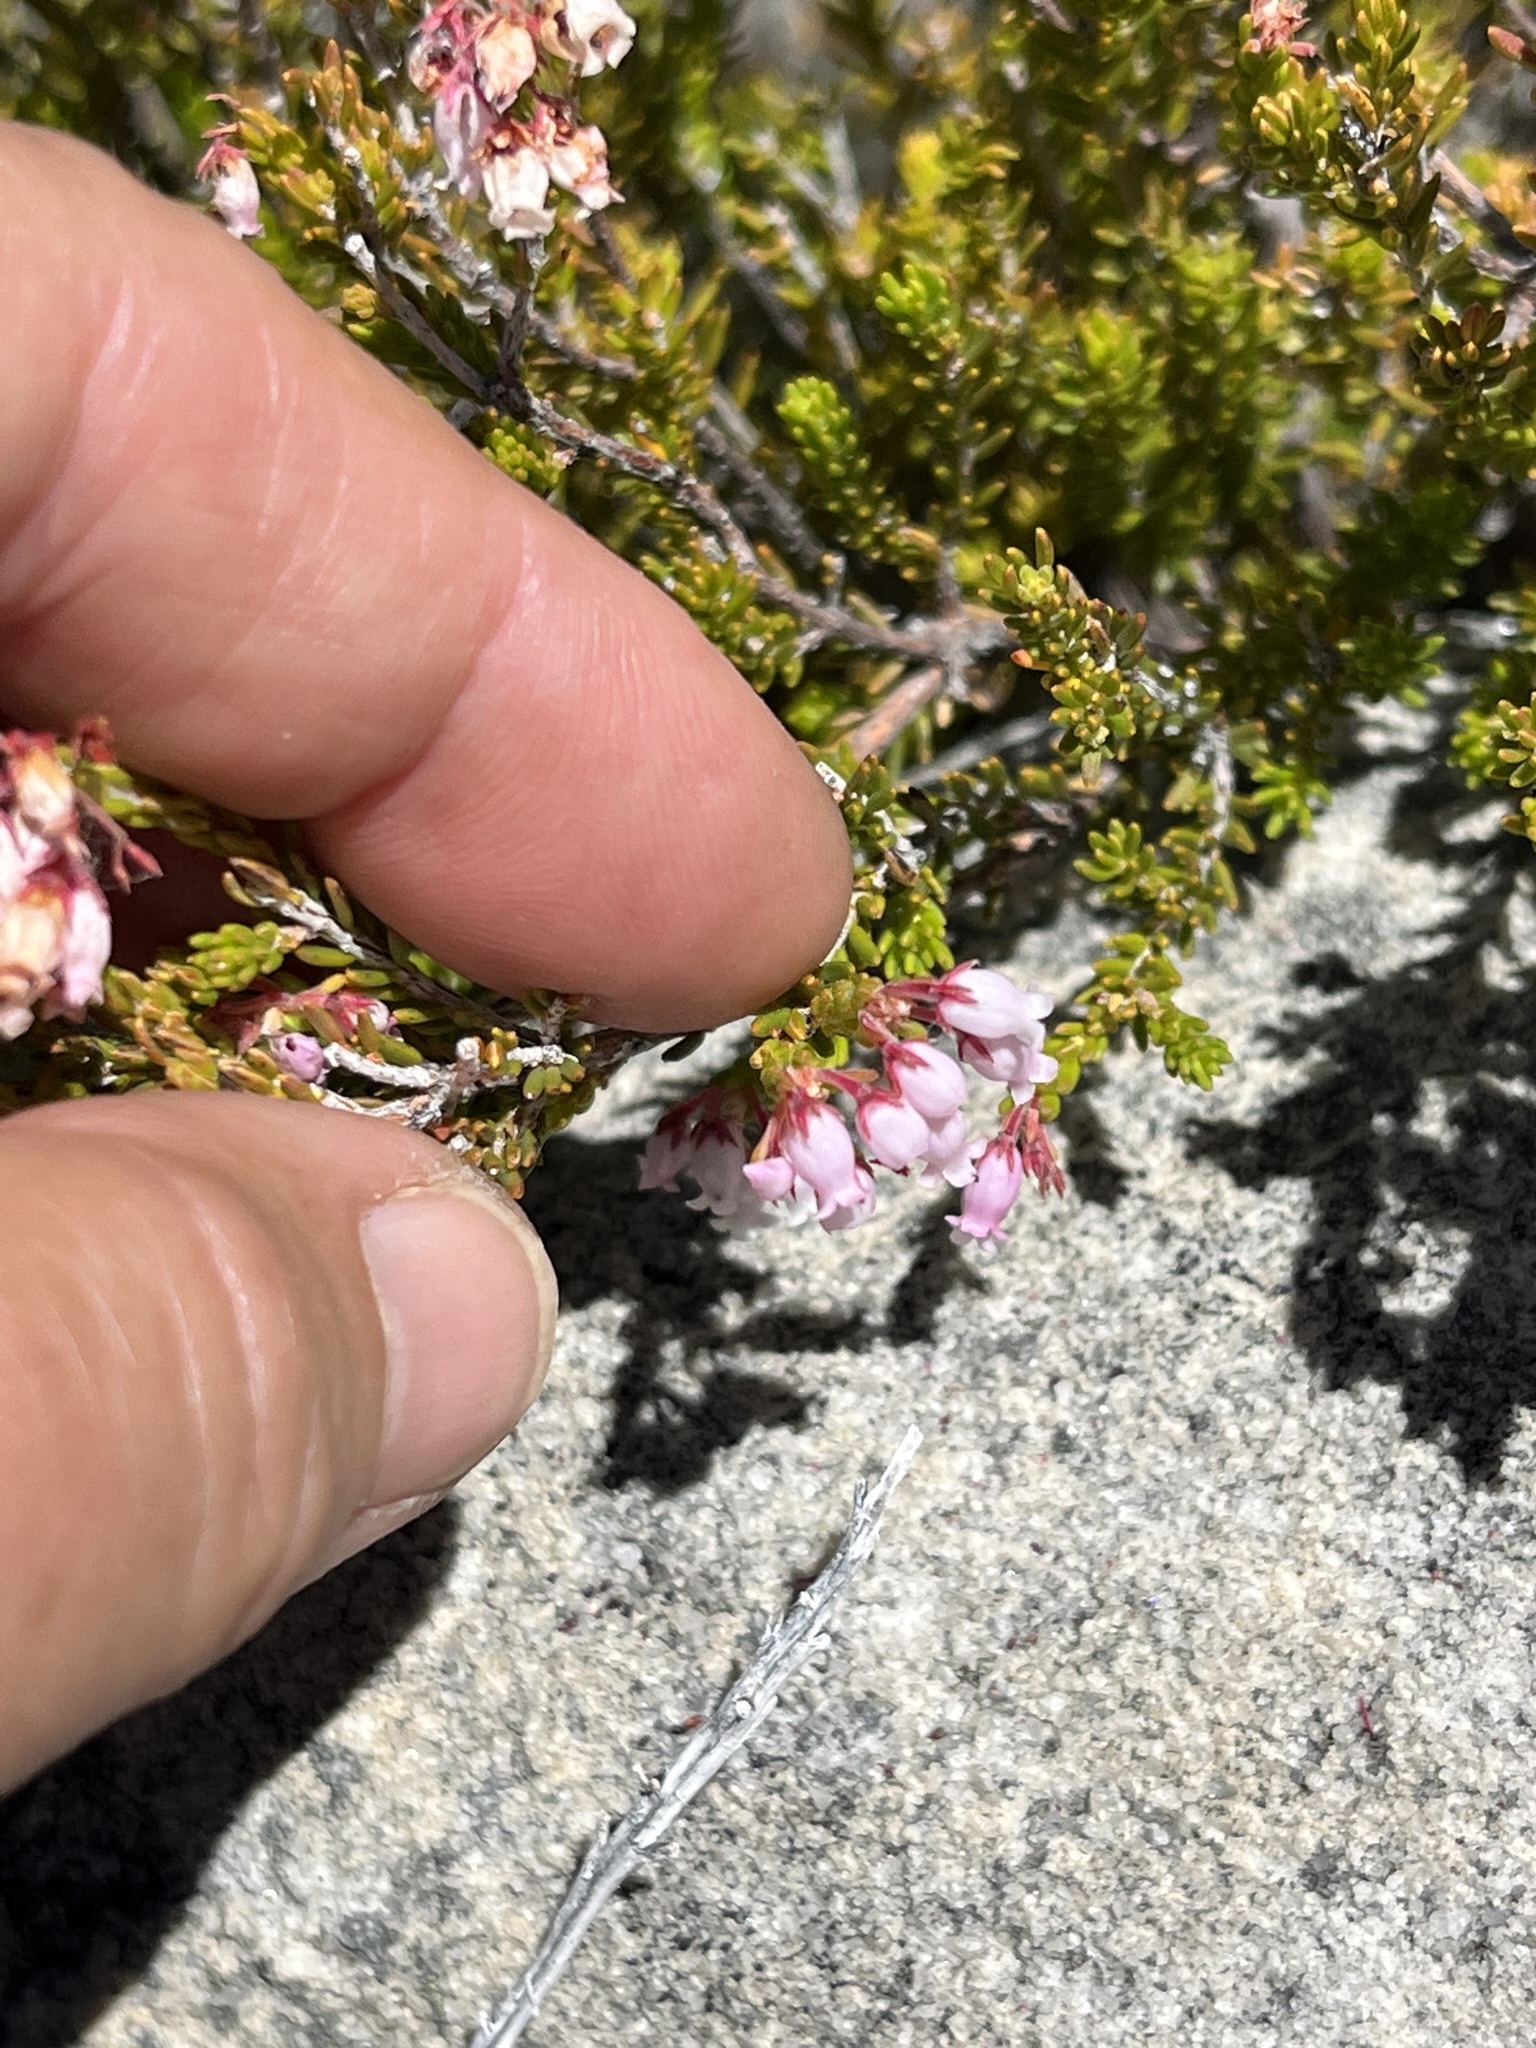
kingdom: Plantae
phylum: Tracheophyta
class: Magnoliopsida
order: Ericales
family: Ericaceae
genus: Erica
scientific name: Erica verecunda
